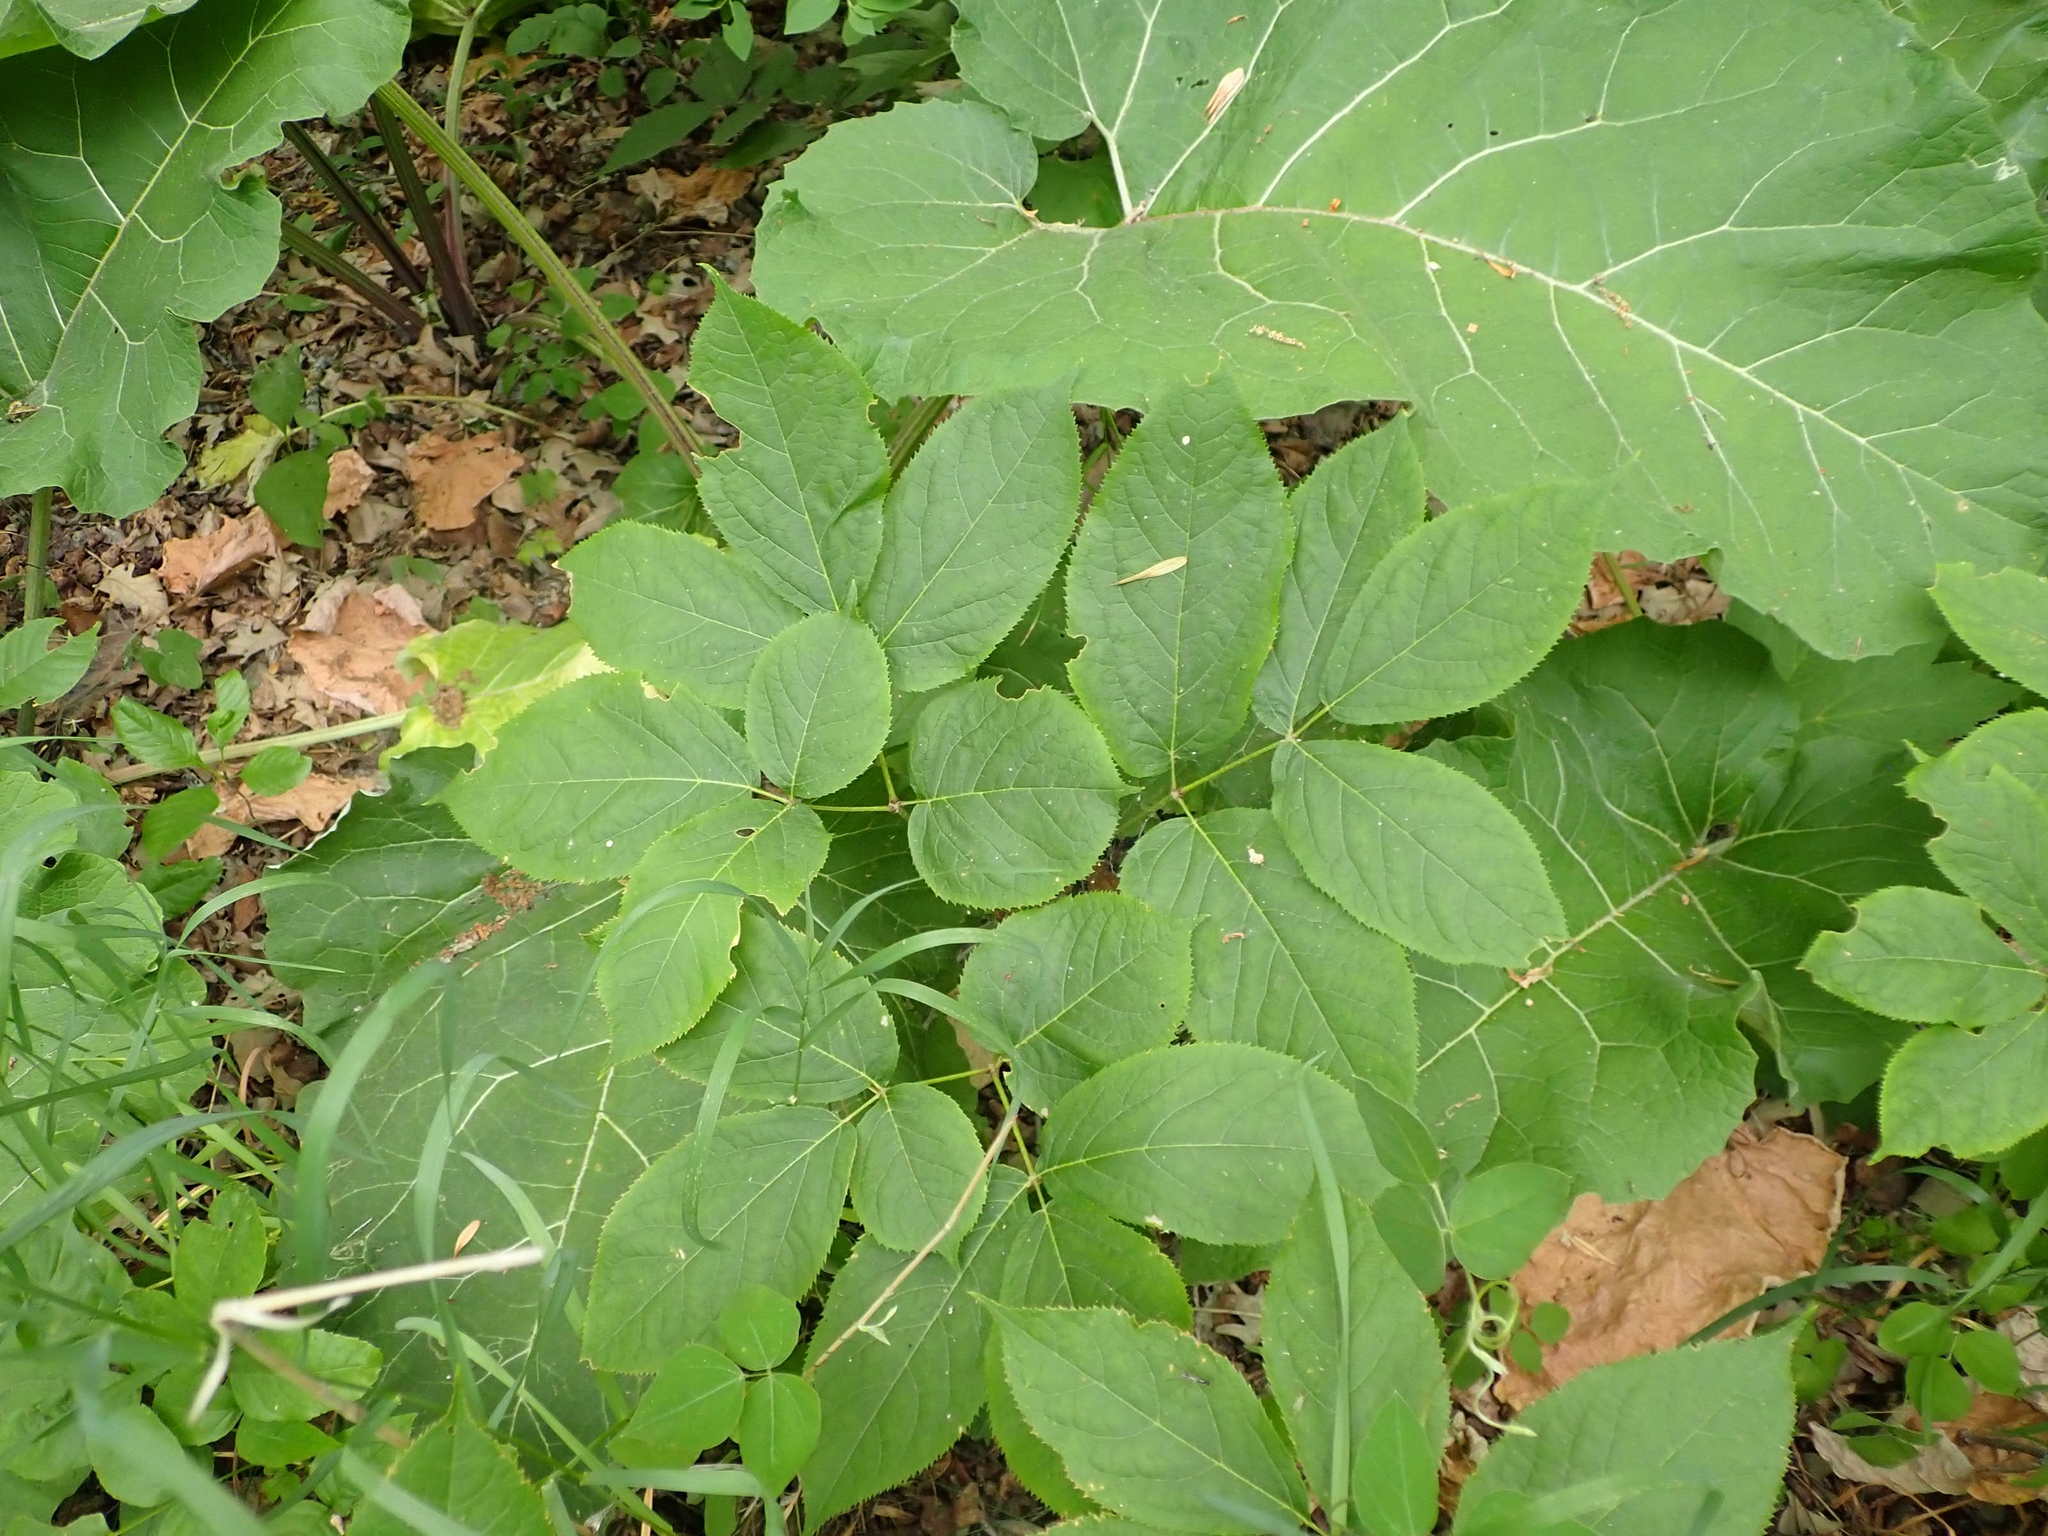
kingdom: Plantae
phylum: Tracheophyta
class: Magnoliopsida
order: Apiales
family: Araliaceae
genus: Aralia
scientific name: Aralia nudicaulis
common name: Wild sarsaparilla
